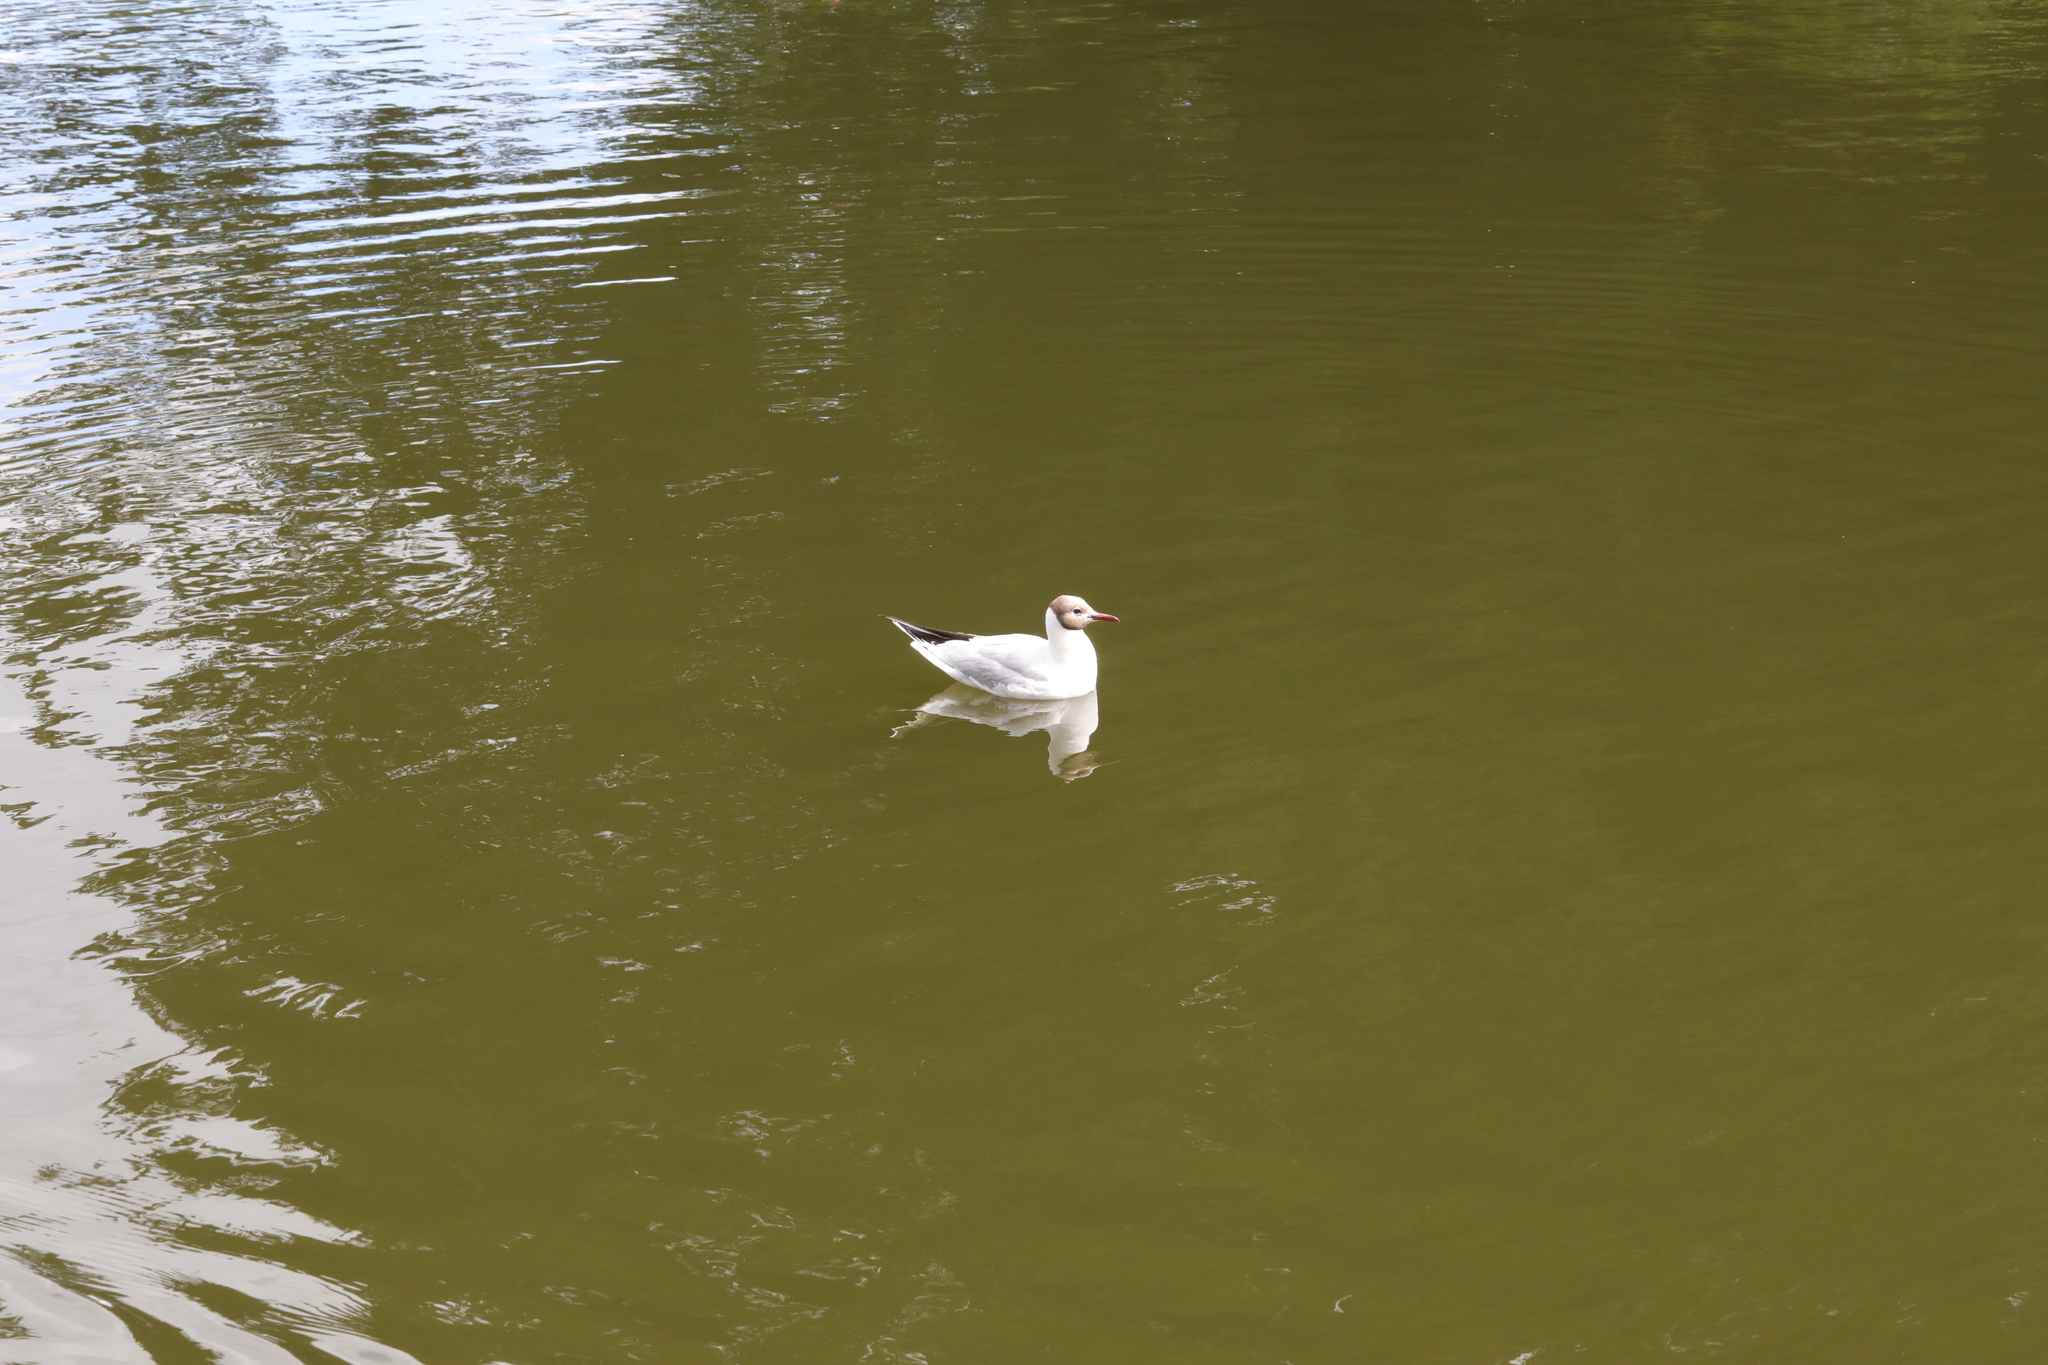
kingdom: Animalia
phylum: Chordata
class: Aves
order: Charadriiformes
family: Laridae
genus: Chroicocephalus
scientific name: Chroicocephalus ridibundus
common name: Black-headed gull
